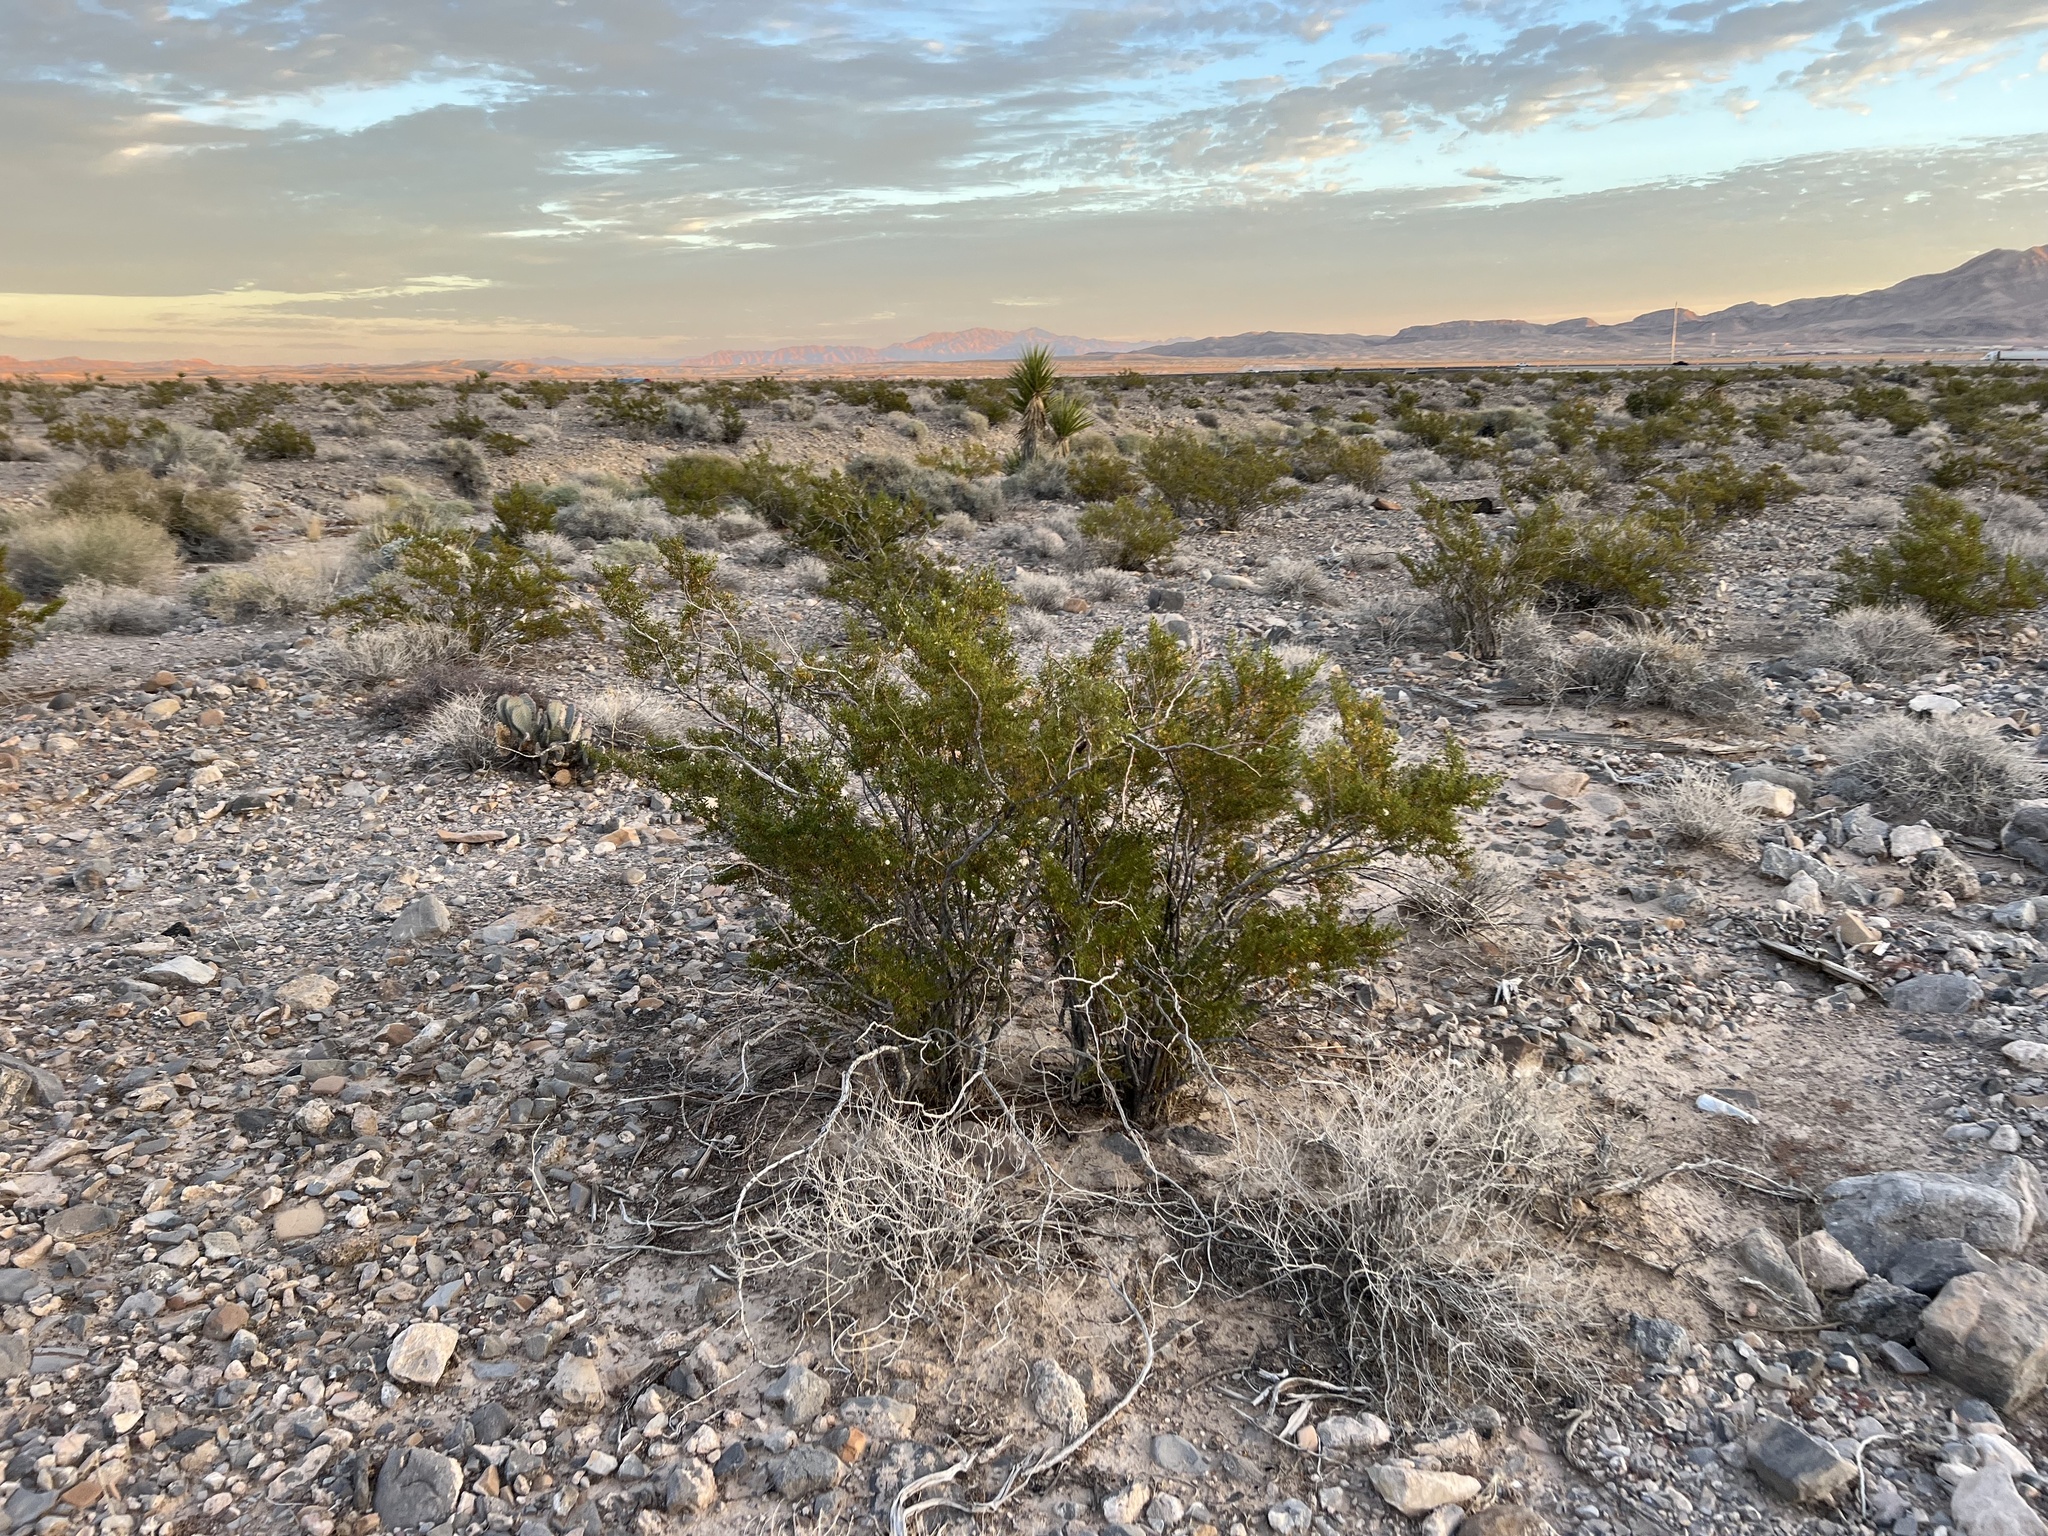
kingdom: Plantae
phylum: Tracheophyta
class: Magnoliopsida
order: Zygophyllales
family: Zygophyllaceae
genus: Larrea
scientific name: Larrea tridentata
